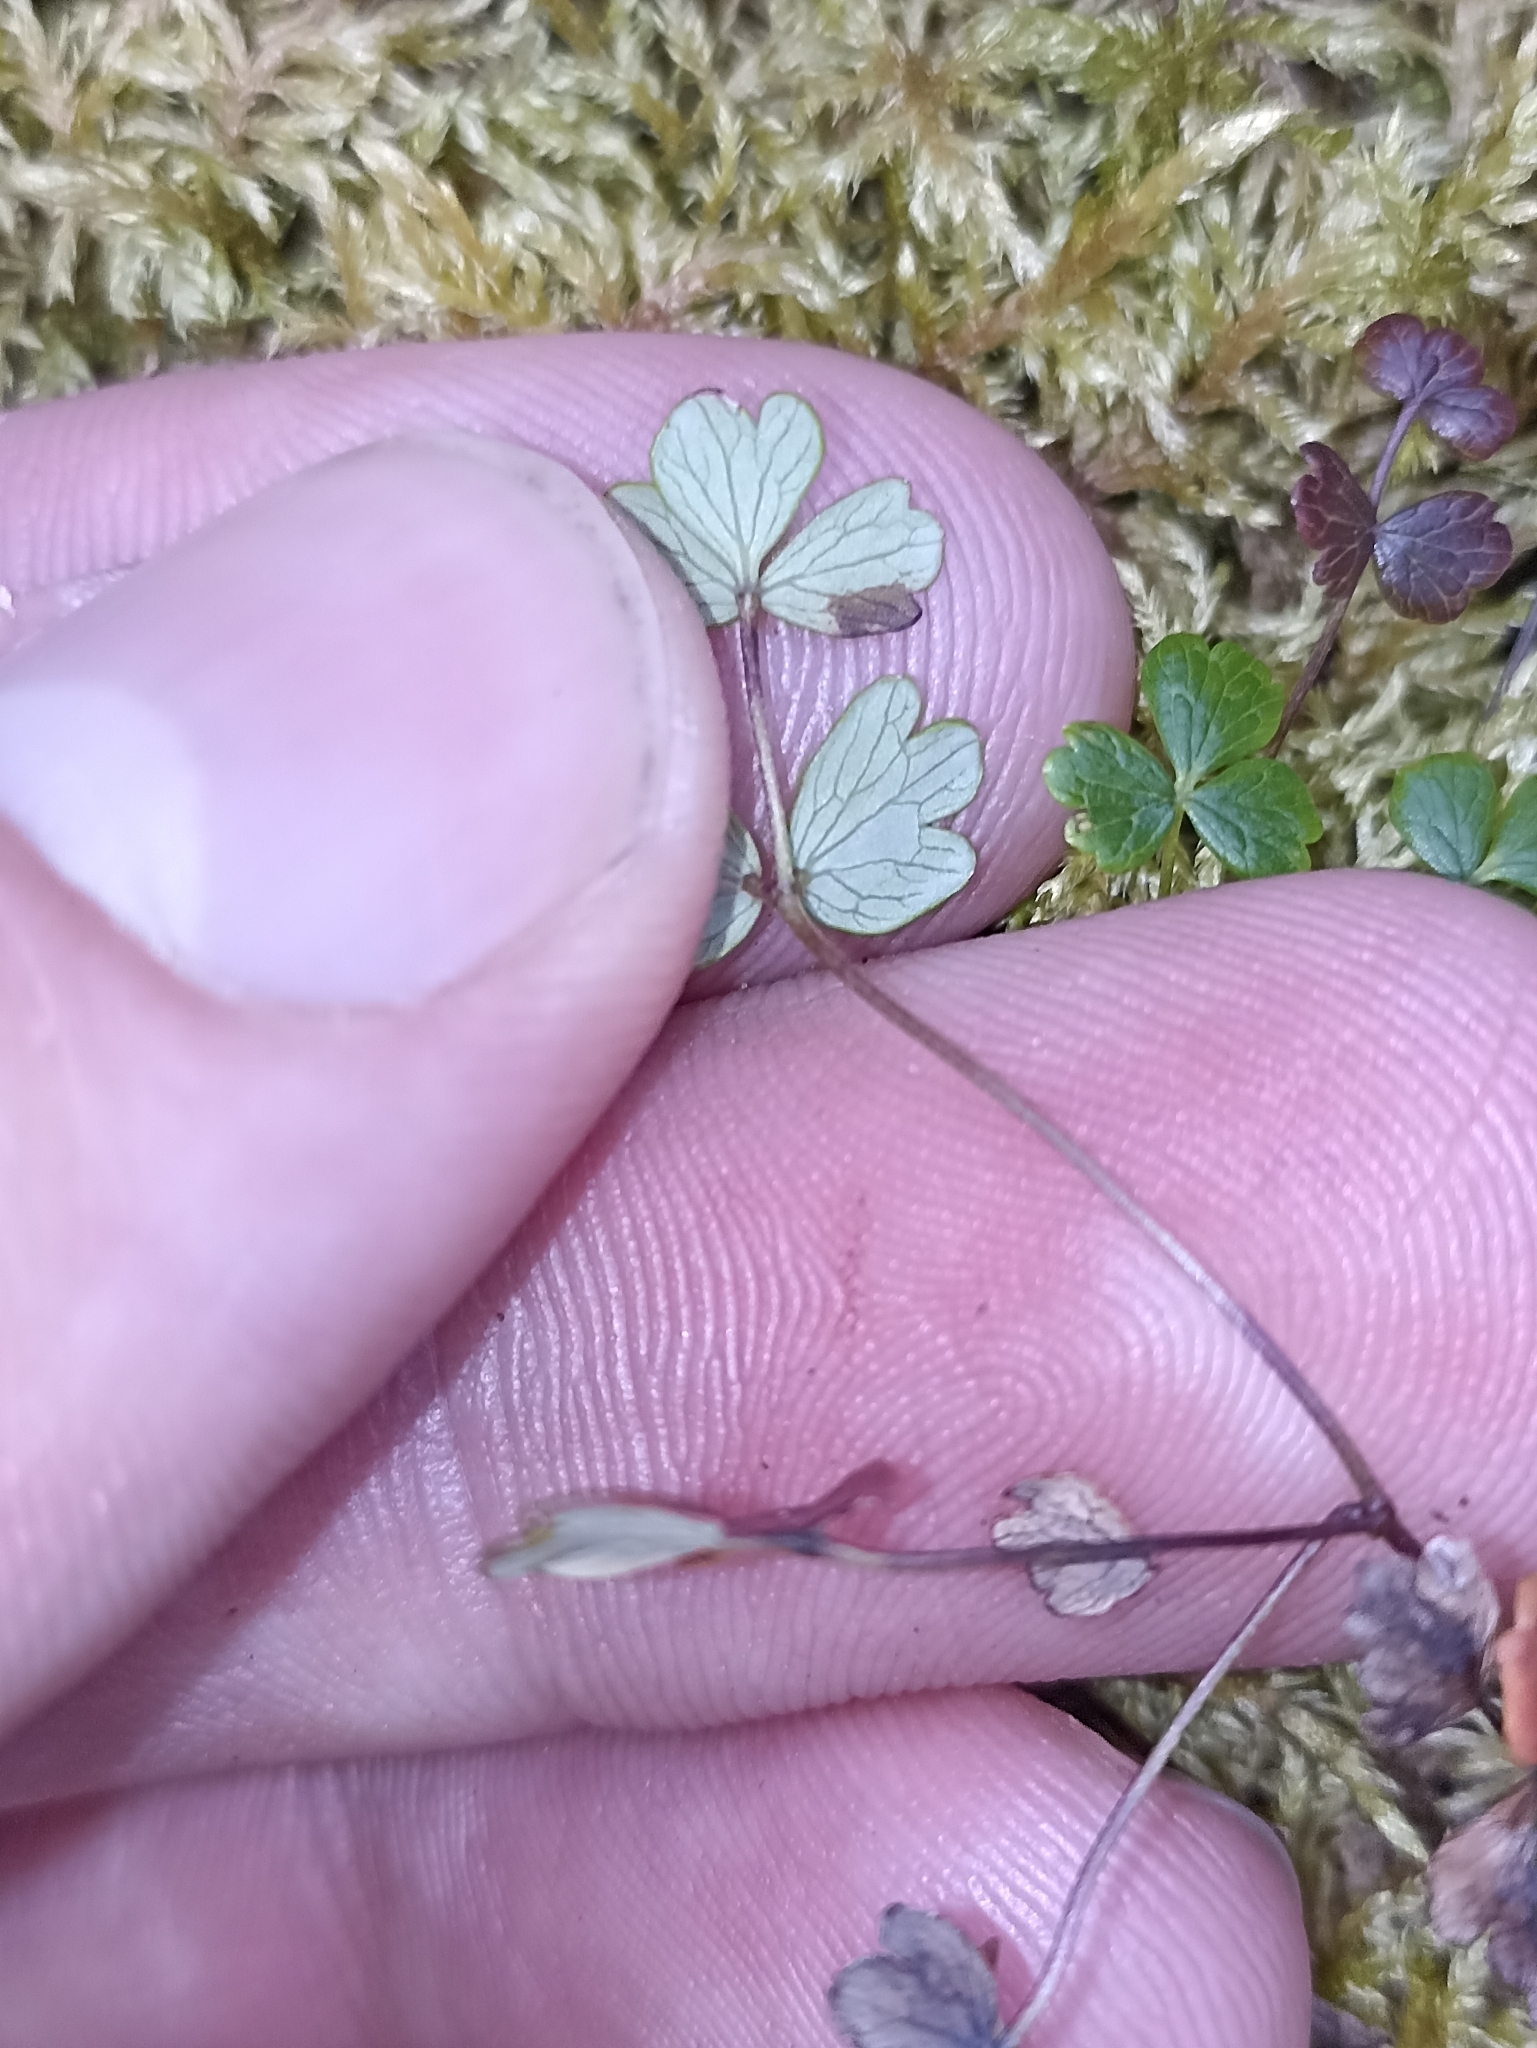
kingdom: Plantae
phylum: Tracheophyta
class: Magnoliopsida
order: Ranunculales
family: Ranunculaceae
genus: Thalictrum
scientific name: Thalictrum alpinum
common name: Alpine meadow-rue
